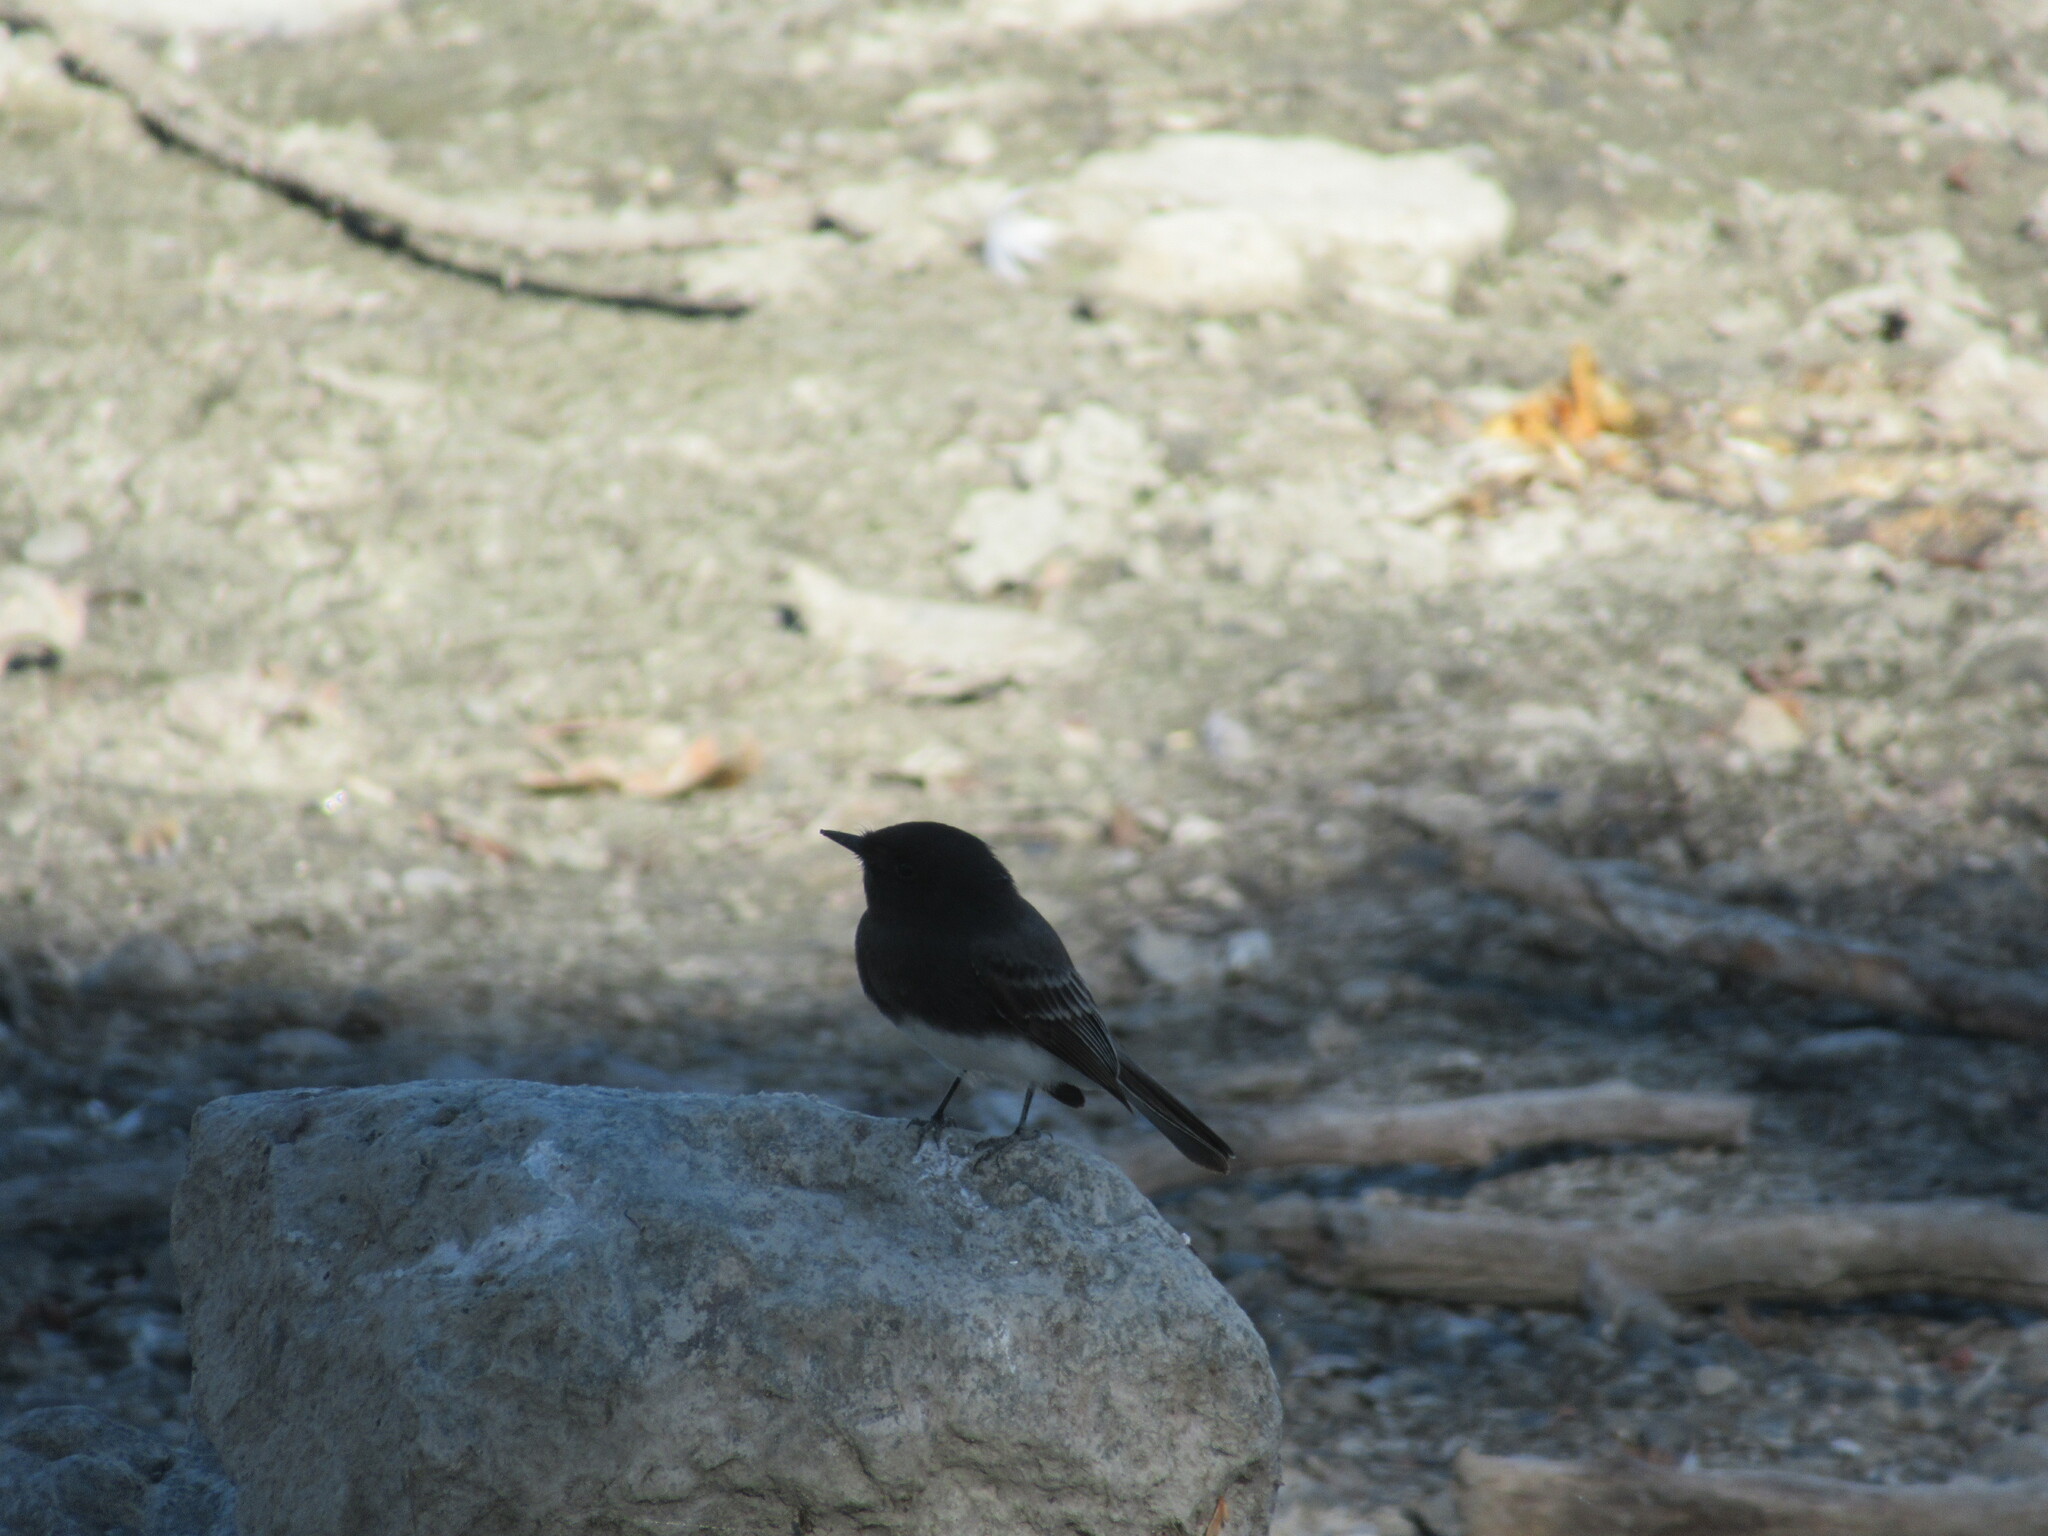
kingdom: Animalia
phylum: Chordata
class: Aves
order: Passeriformes
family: Tyrannidae
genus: Sayornis
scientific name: Sayornis nigricans
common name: Black phoebe
